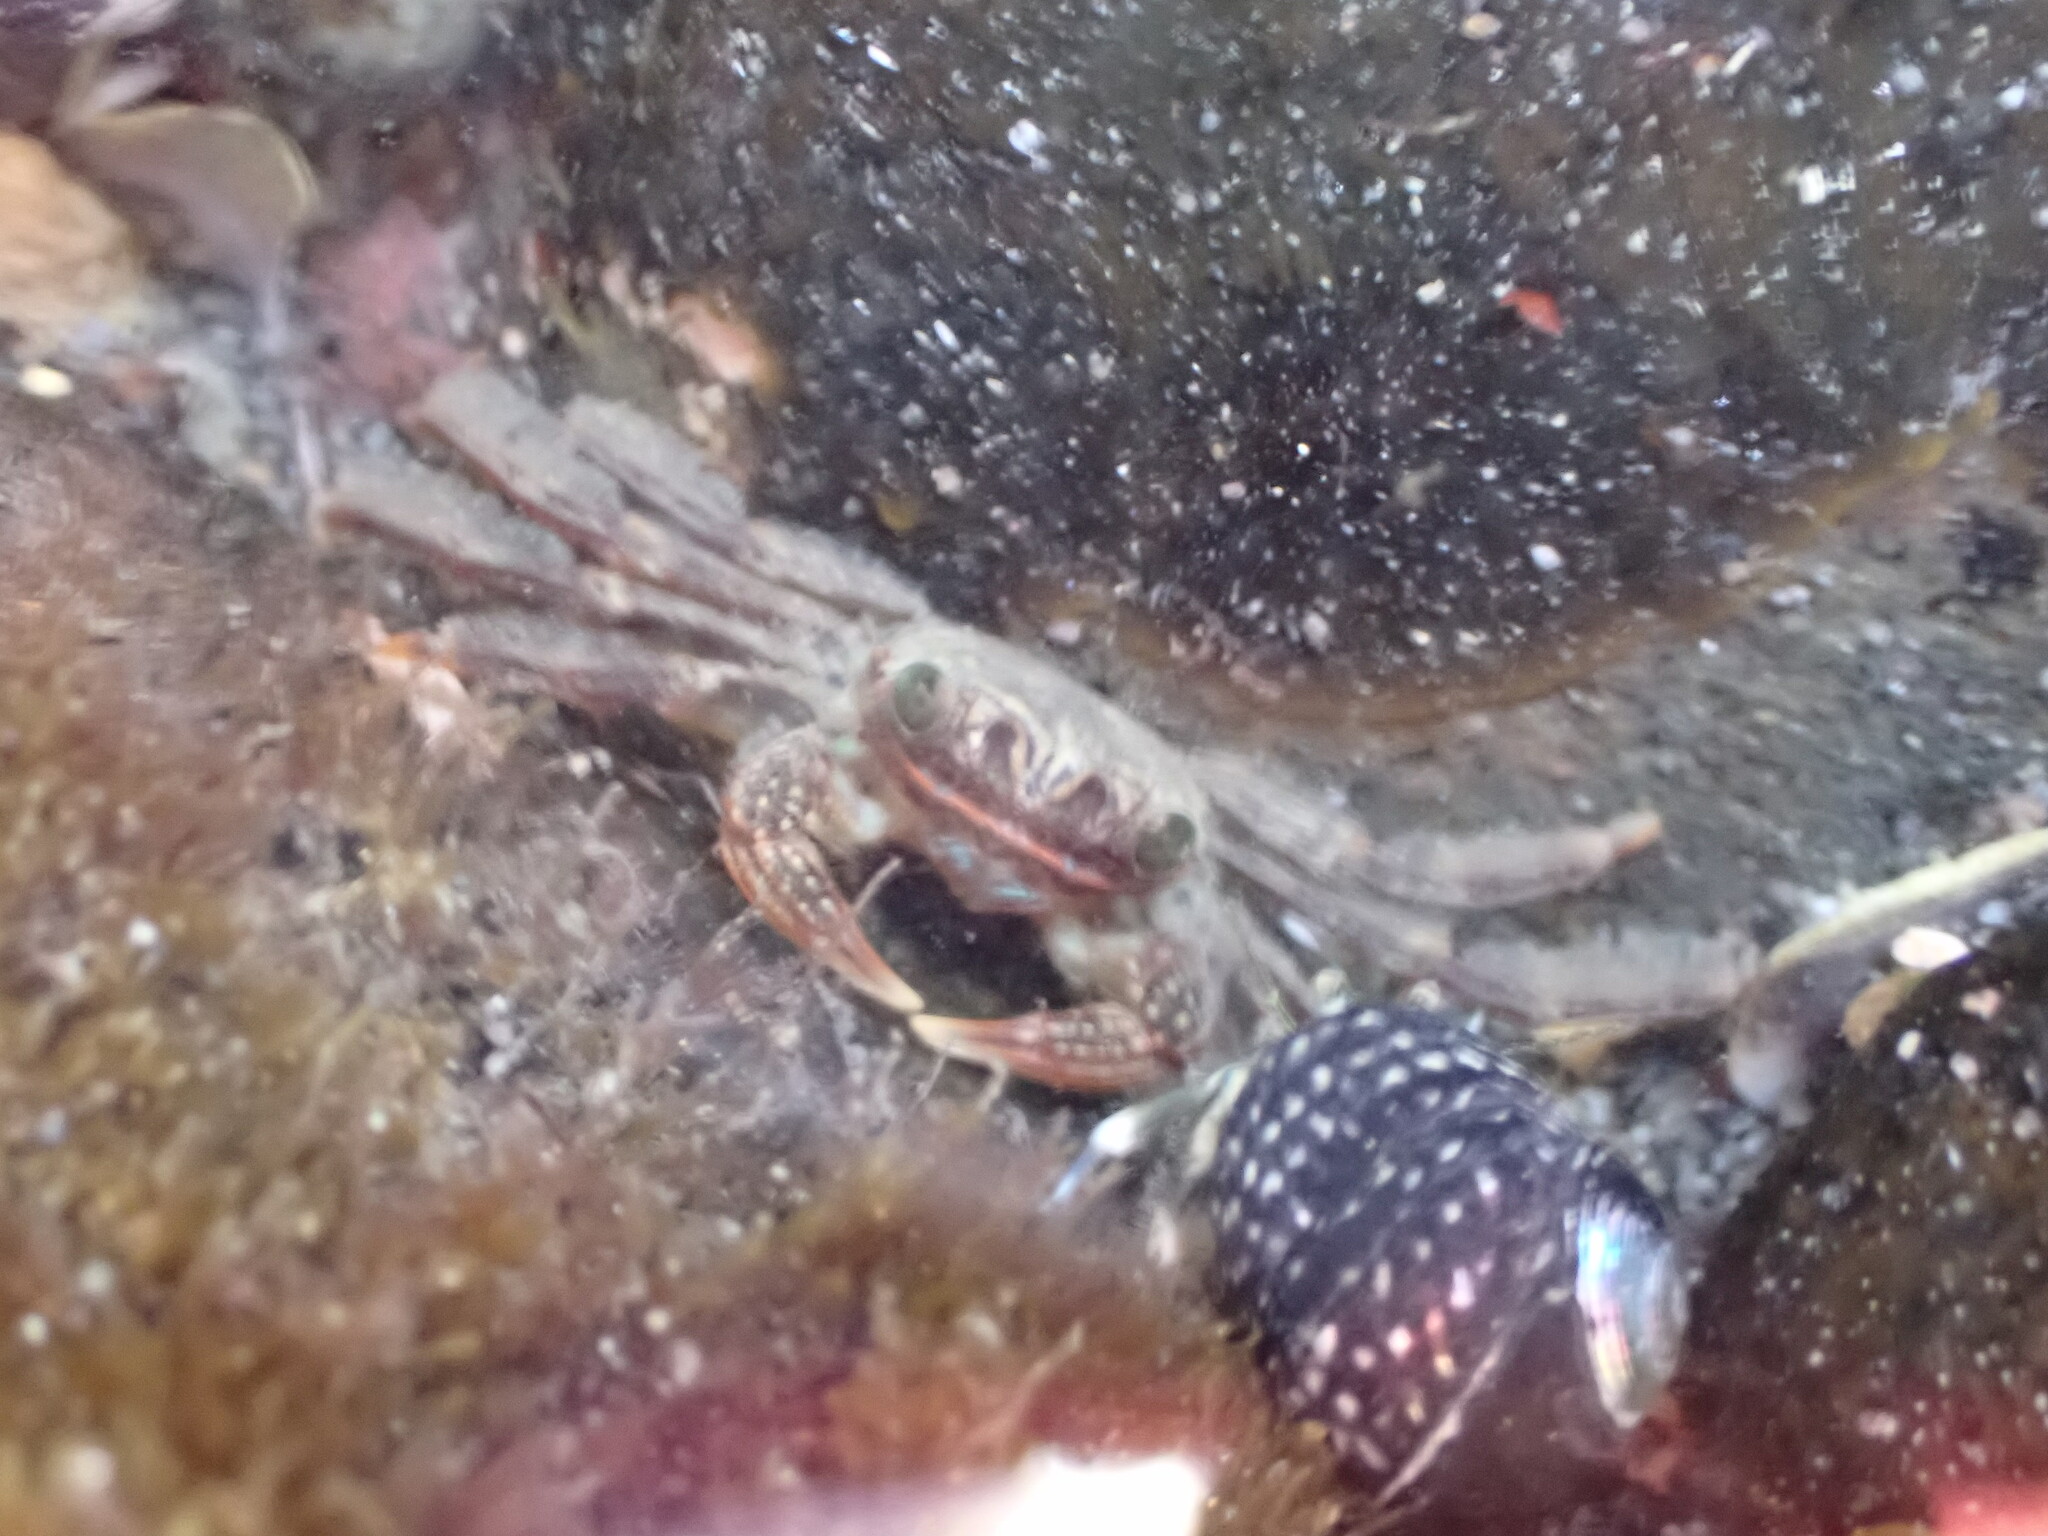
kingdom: Animalia
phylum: Arthropoda
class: Malacostraca
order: Decapoda
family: Plagusiidae
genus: Guinusia
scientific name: Guinusia chabrus
